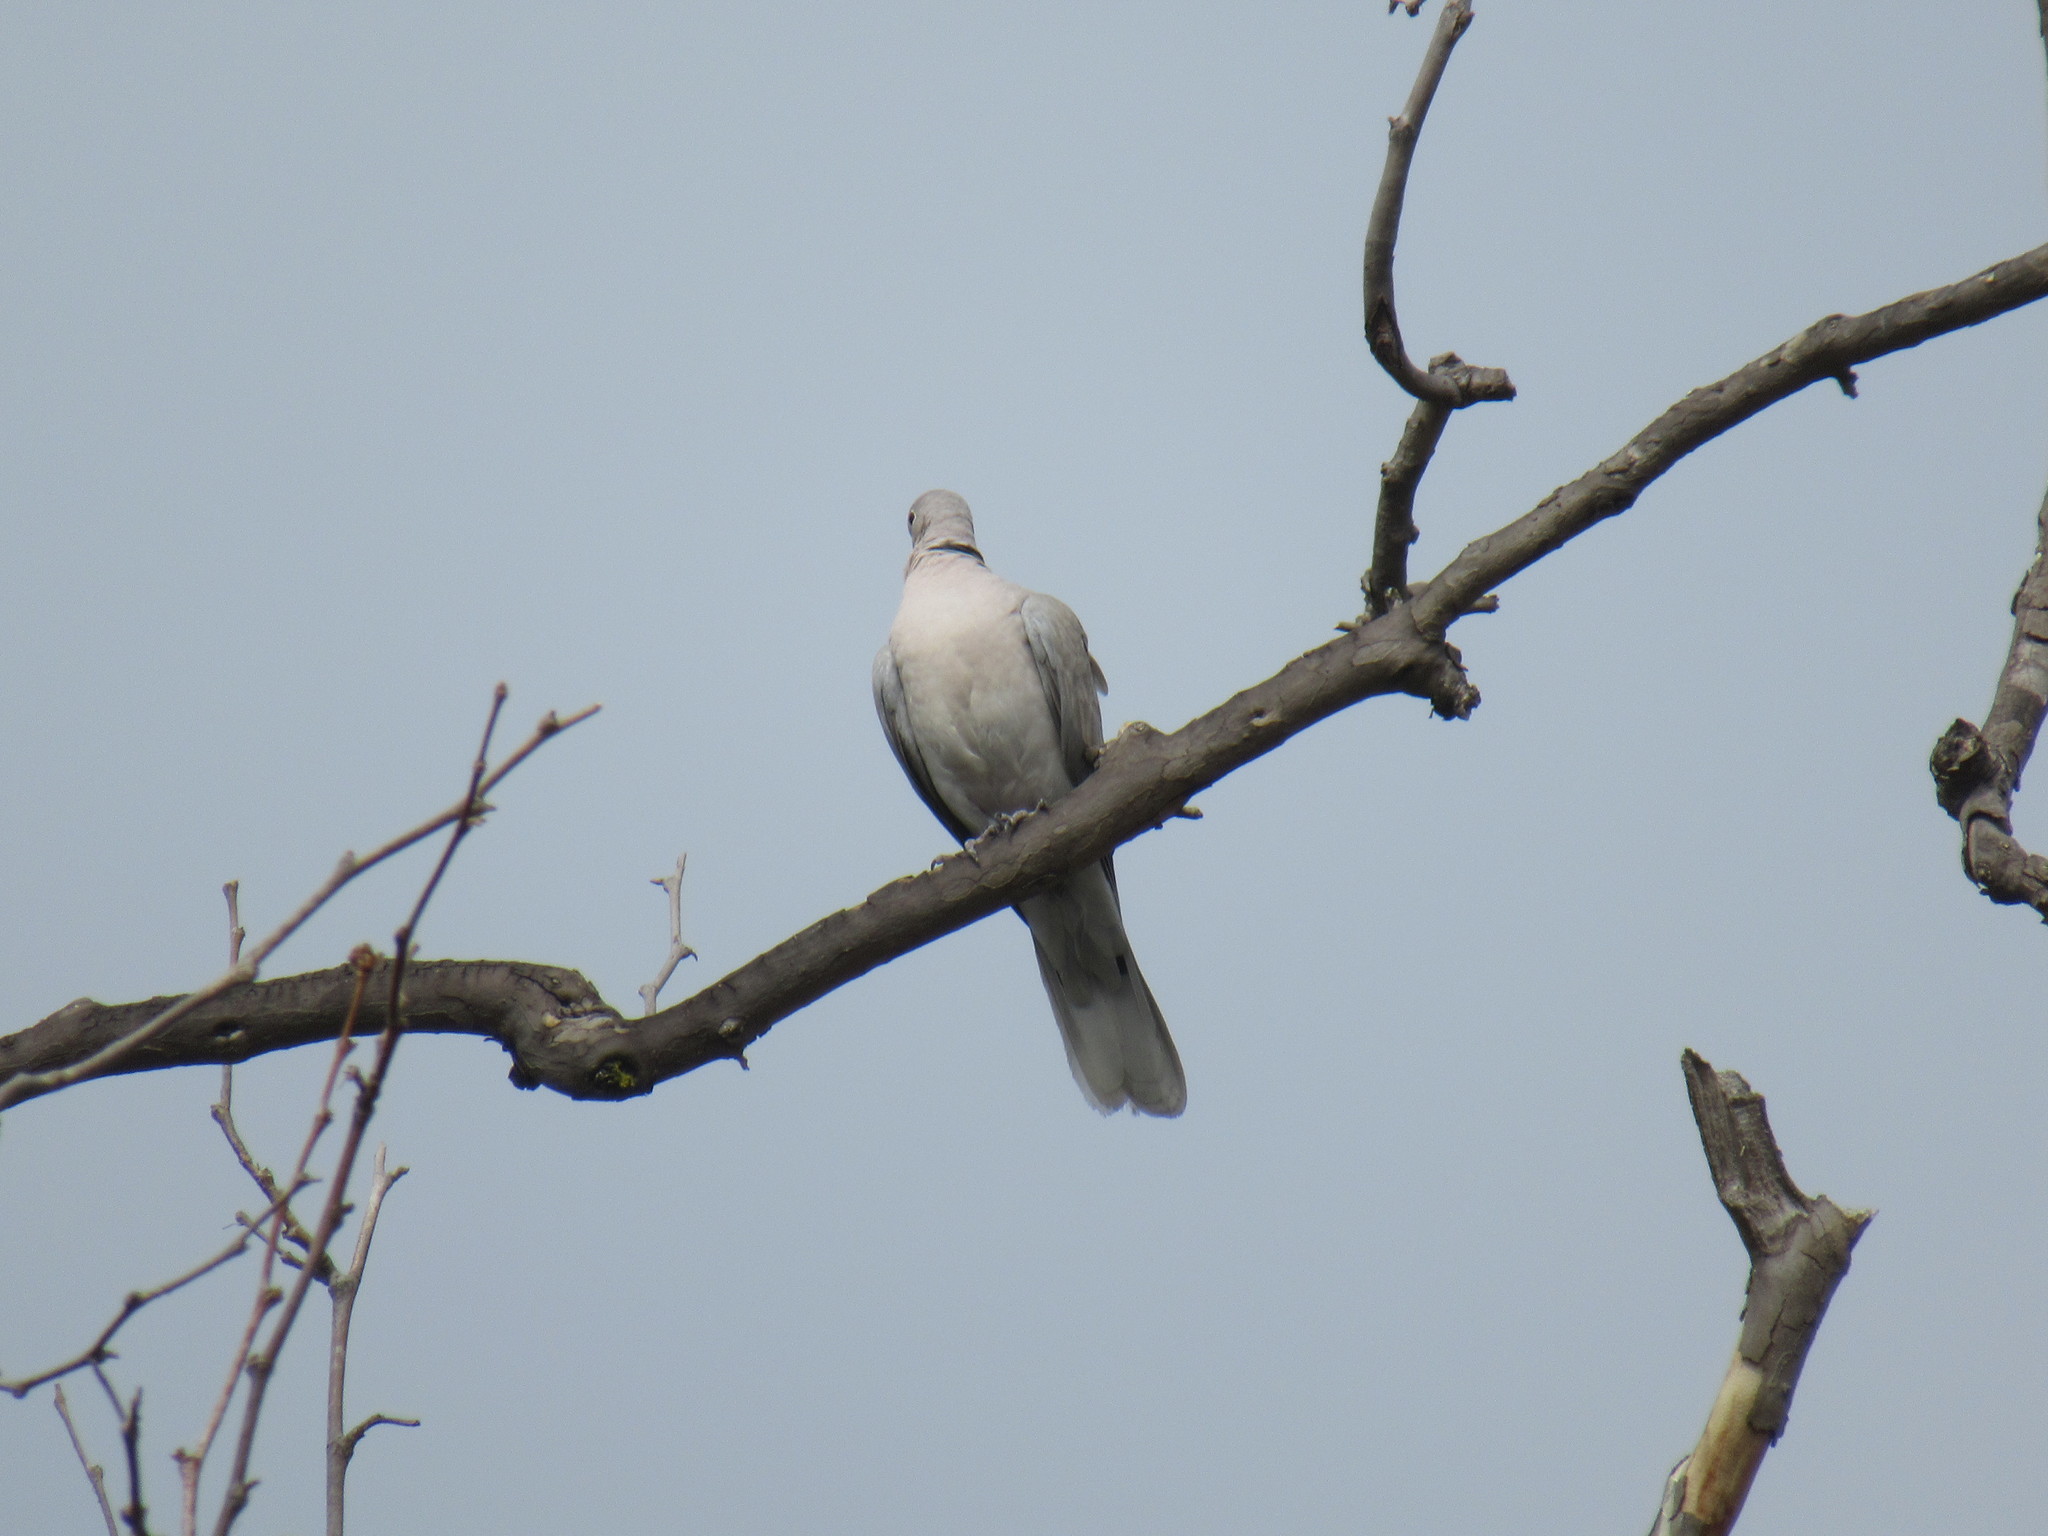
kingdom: Animalia
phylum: Chordata
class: Aves
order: Columbiformes
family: Columbidae
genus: Streptopelia
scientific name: Streptopelia decaocto
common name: Eurasian collared dove
